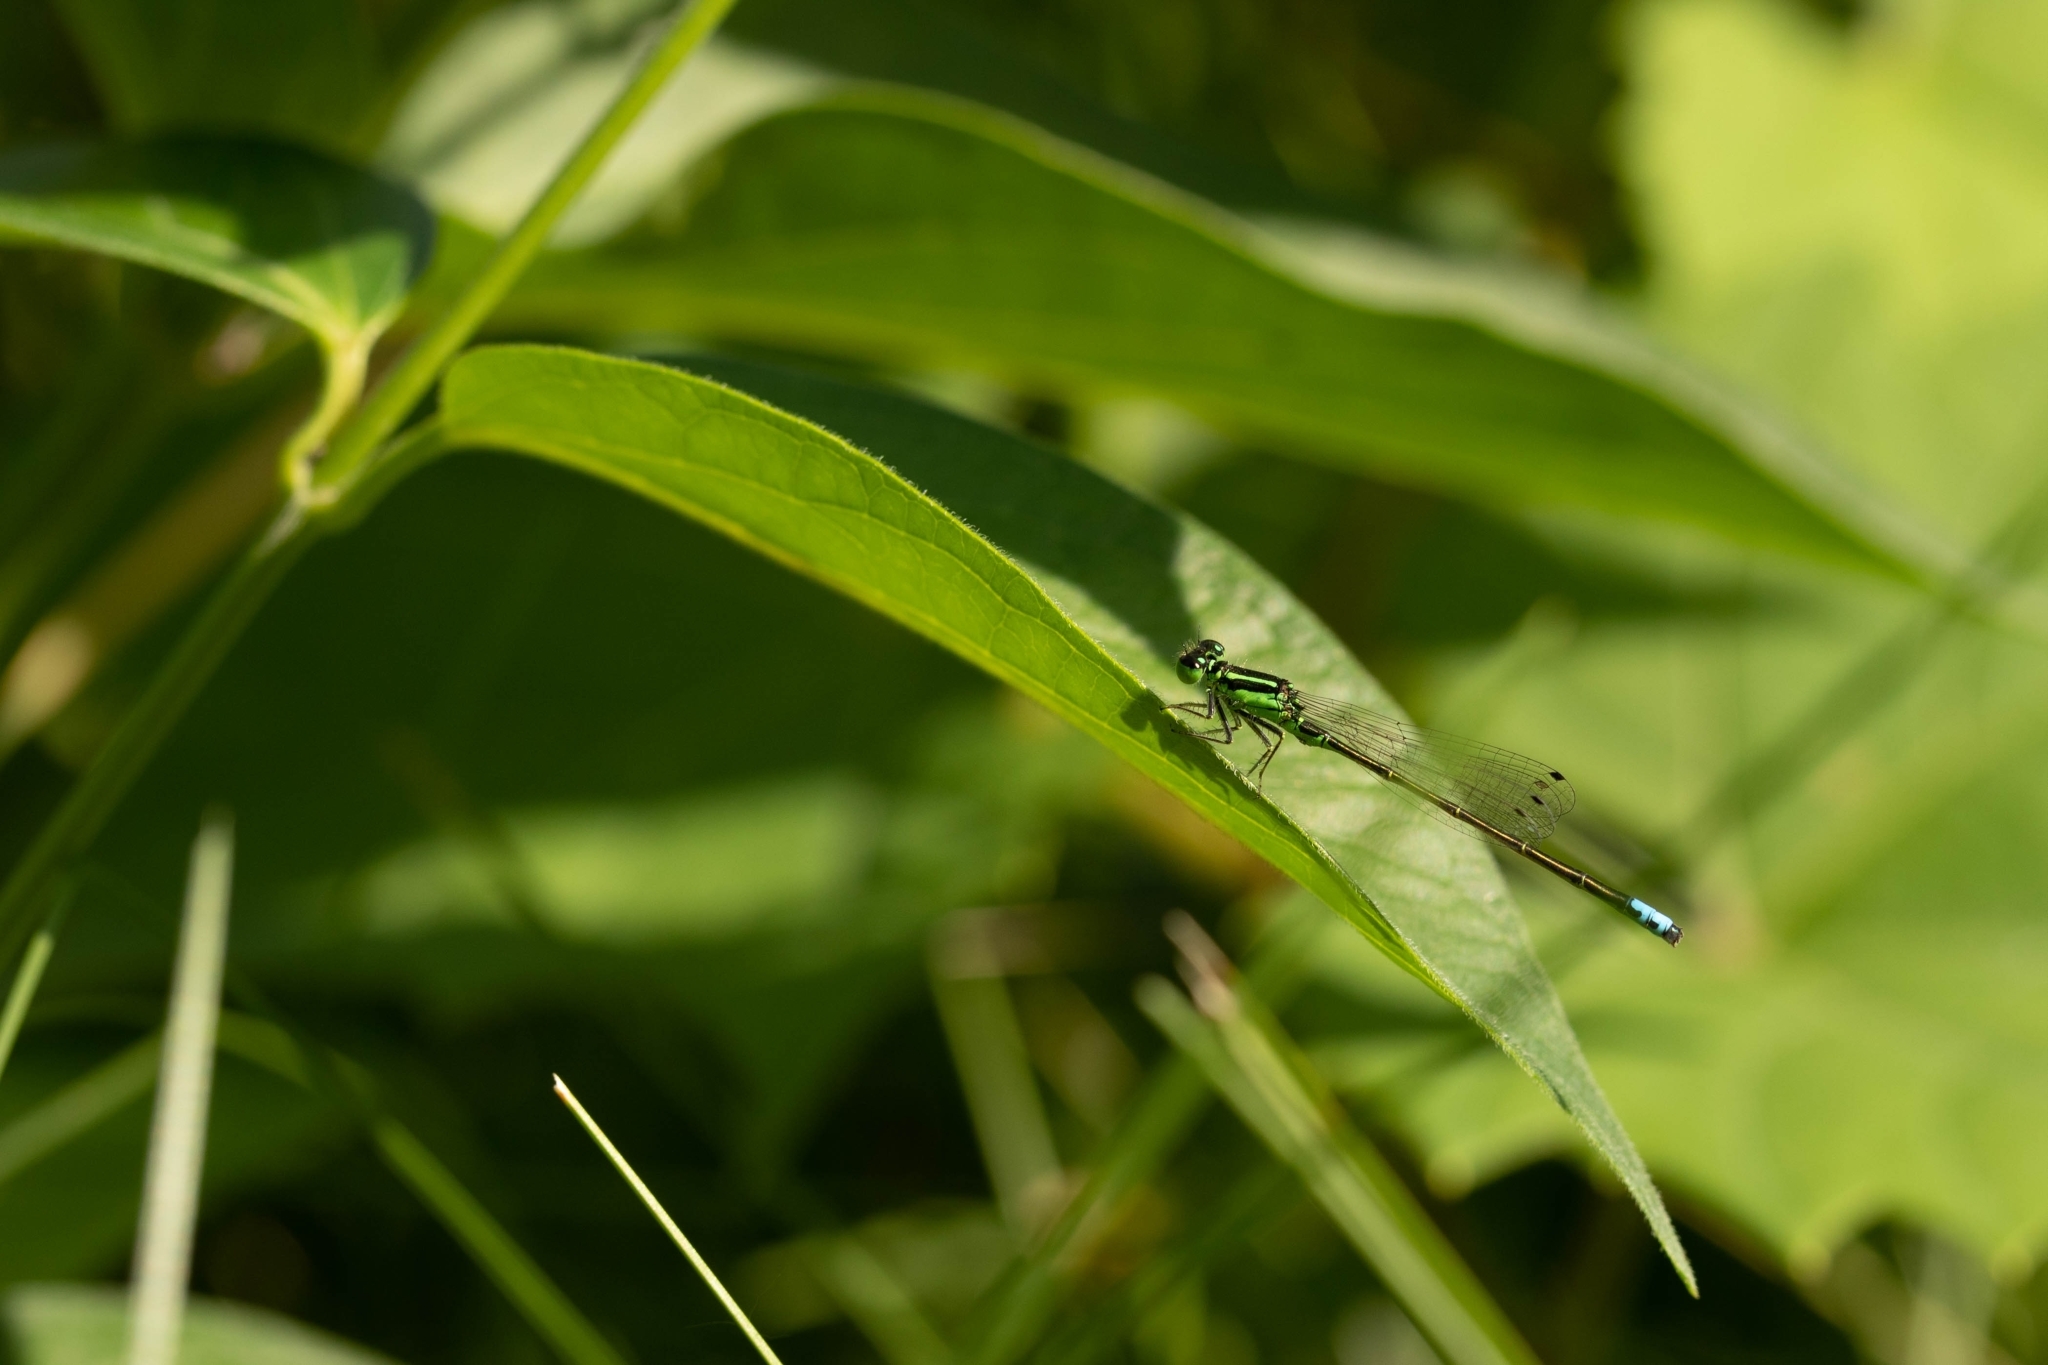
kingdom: Animalia
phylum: Arthropoda
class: Insecta
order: Odonata
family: Coenagrionidae
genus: Ischnura
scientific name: Ischnura verticalis
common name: Eastern forktail
